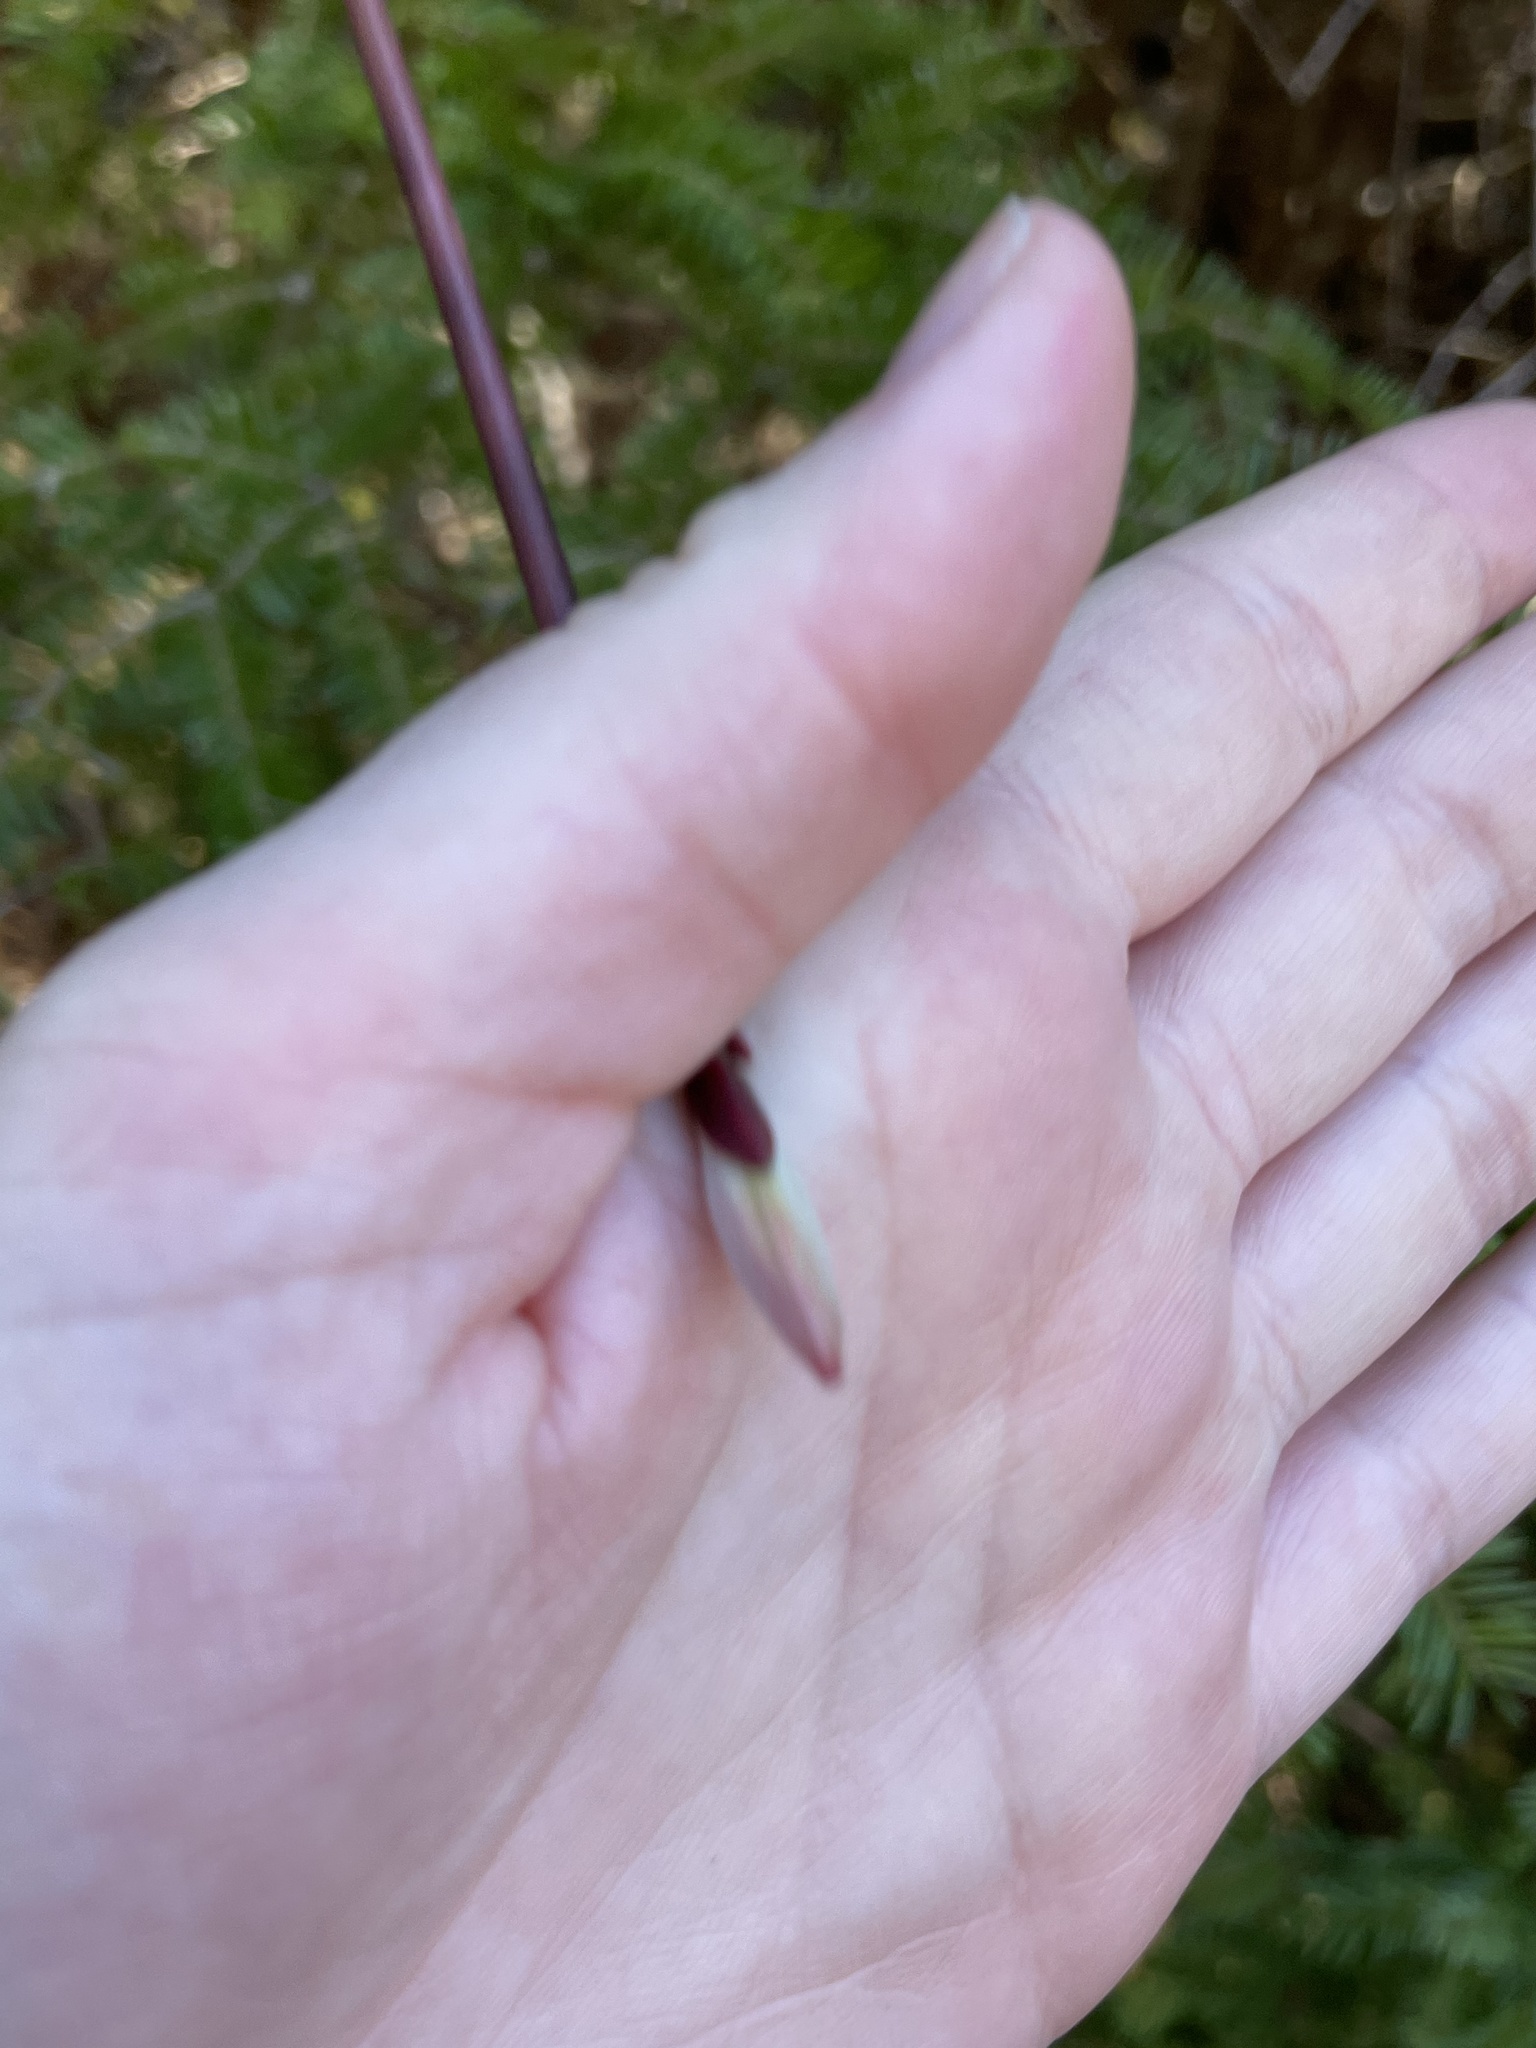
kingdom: Plantae
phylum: Tracheophyta
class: Magnoliopsida
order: Sapindales
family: Sapindaceae
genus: Acer
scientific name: Acer pensylvanicum
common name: Moosewood
